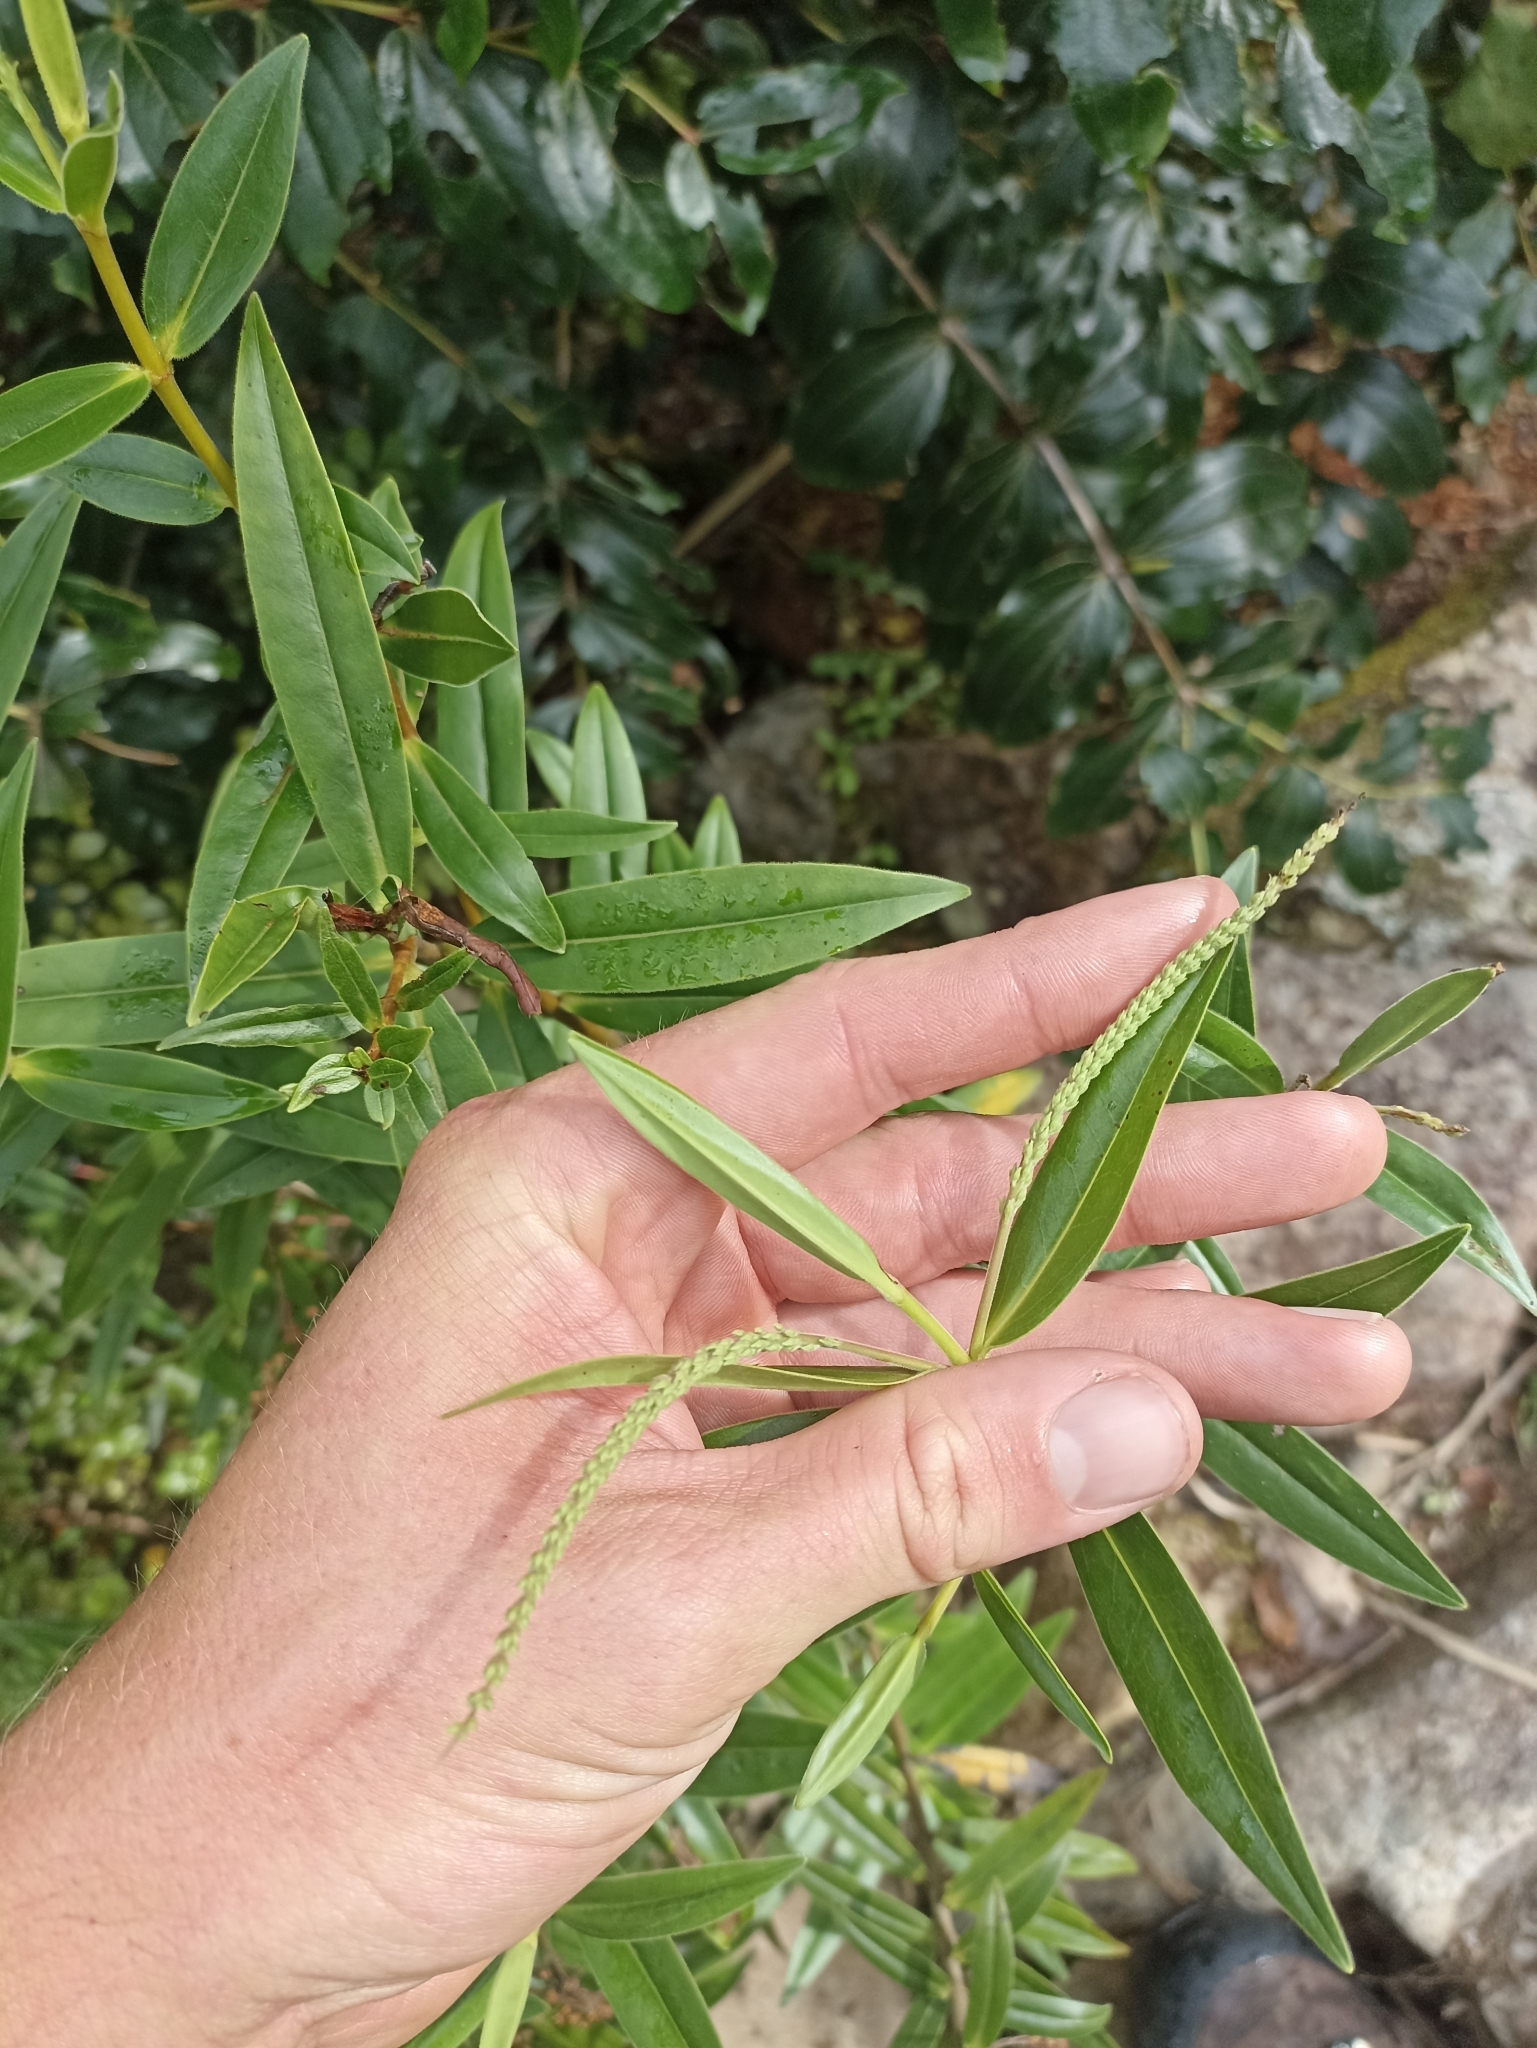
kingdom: Plantae
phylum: Tracheophyta
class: Magnoliopsida
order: Lamiales
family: Plantaginaceae
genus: Veronica
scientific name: Veronica pubescens
